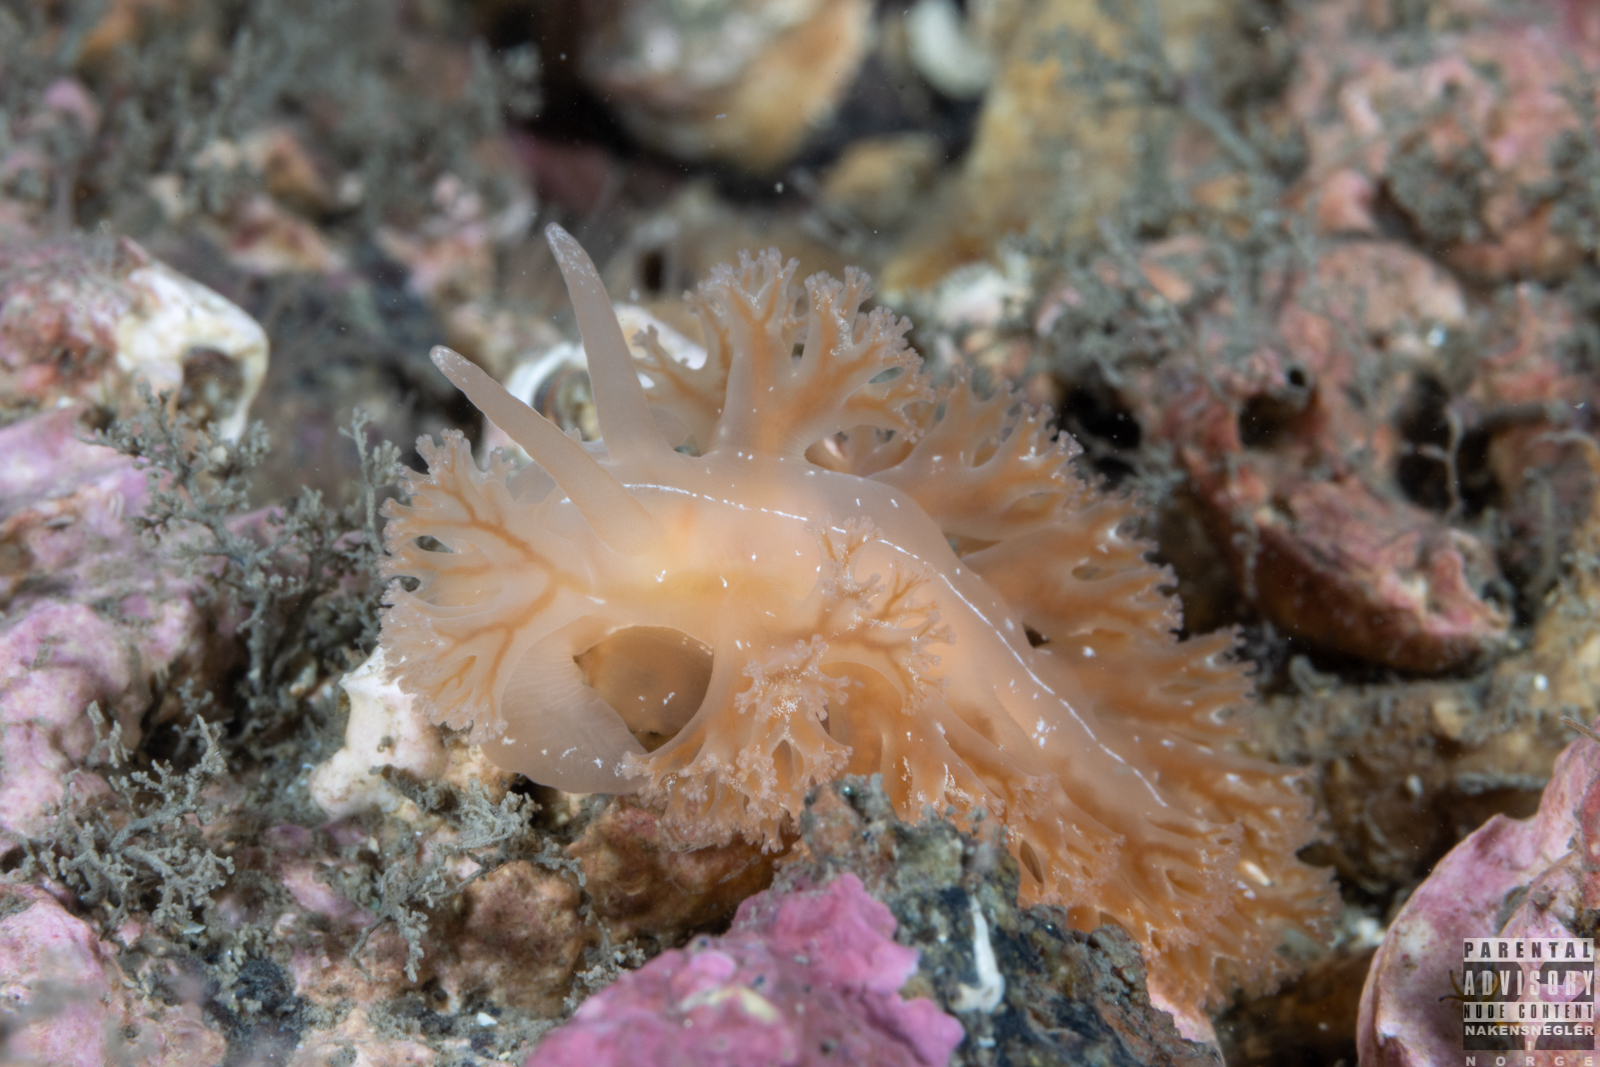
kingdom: Animalia
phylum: Mollusca
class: Gastropoda
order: Nudibranchia
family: Heroidae
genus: Hero
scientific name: Hero formosa
